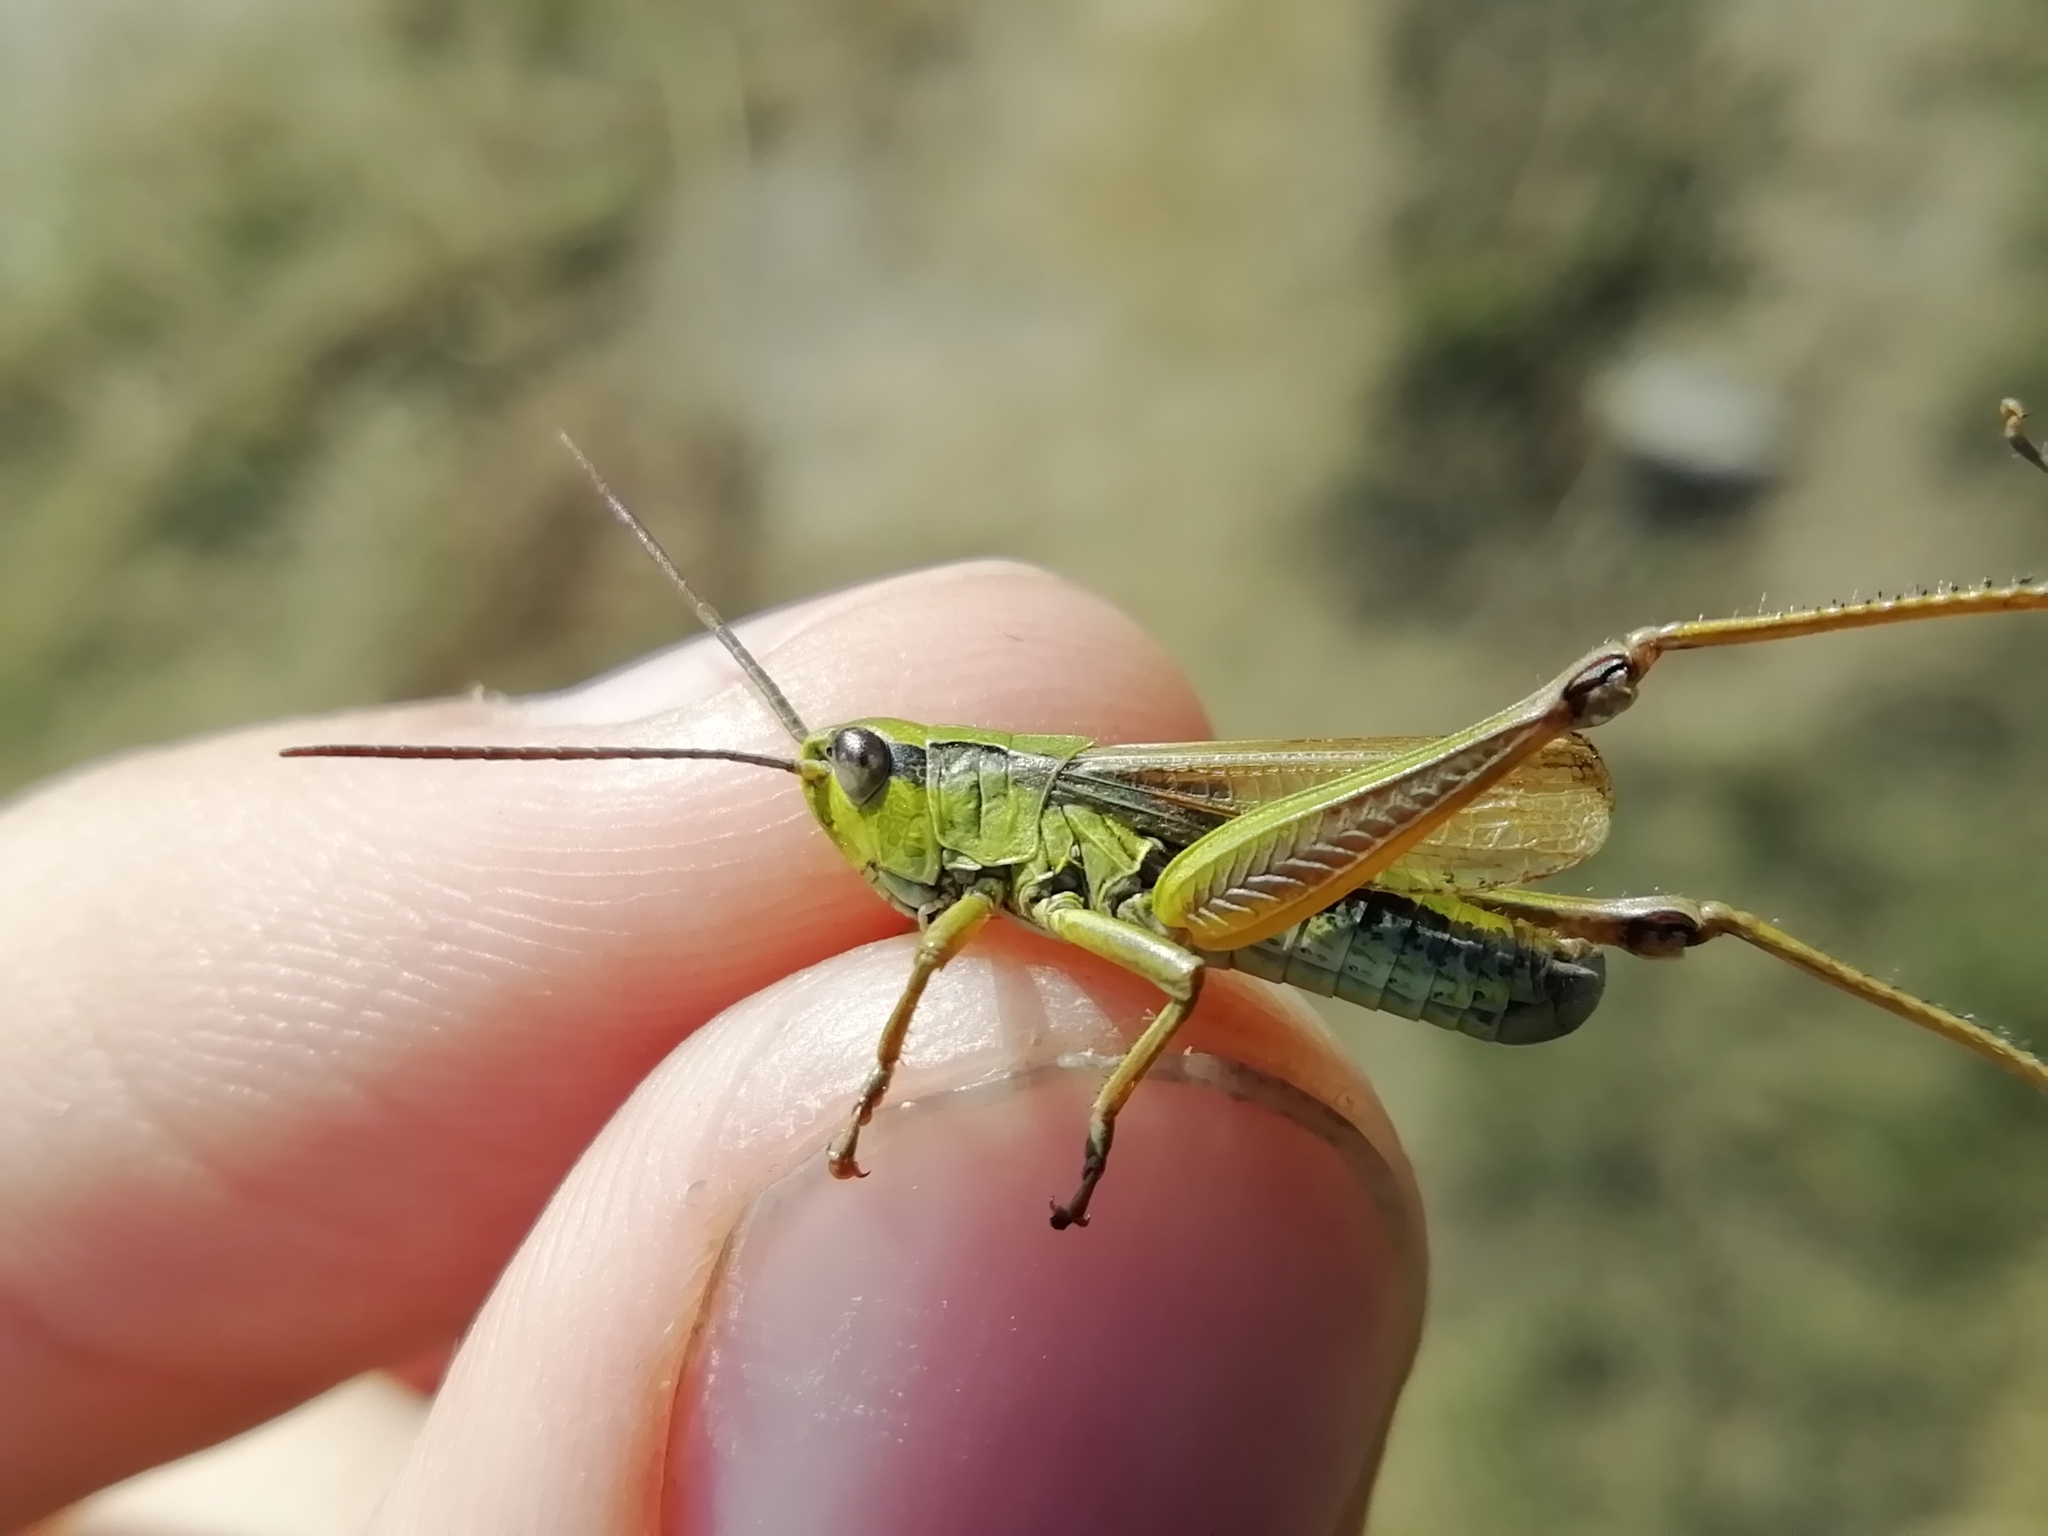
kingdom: Animalia
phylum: Arthropoda
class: Insecta
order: Orthoptera
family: Acrididae
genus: Chorthippus
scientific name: Chorthippus fallax
